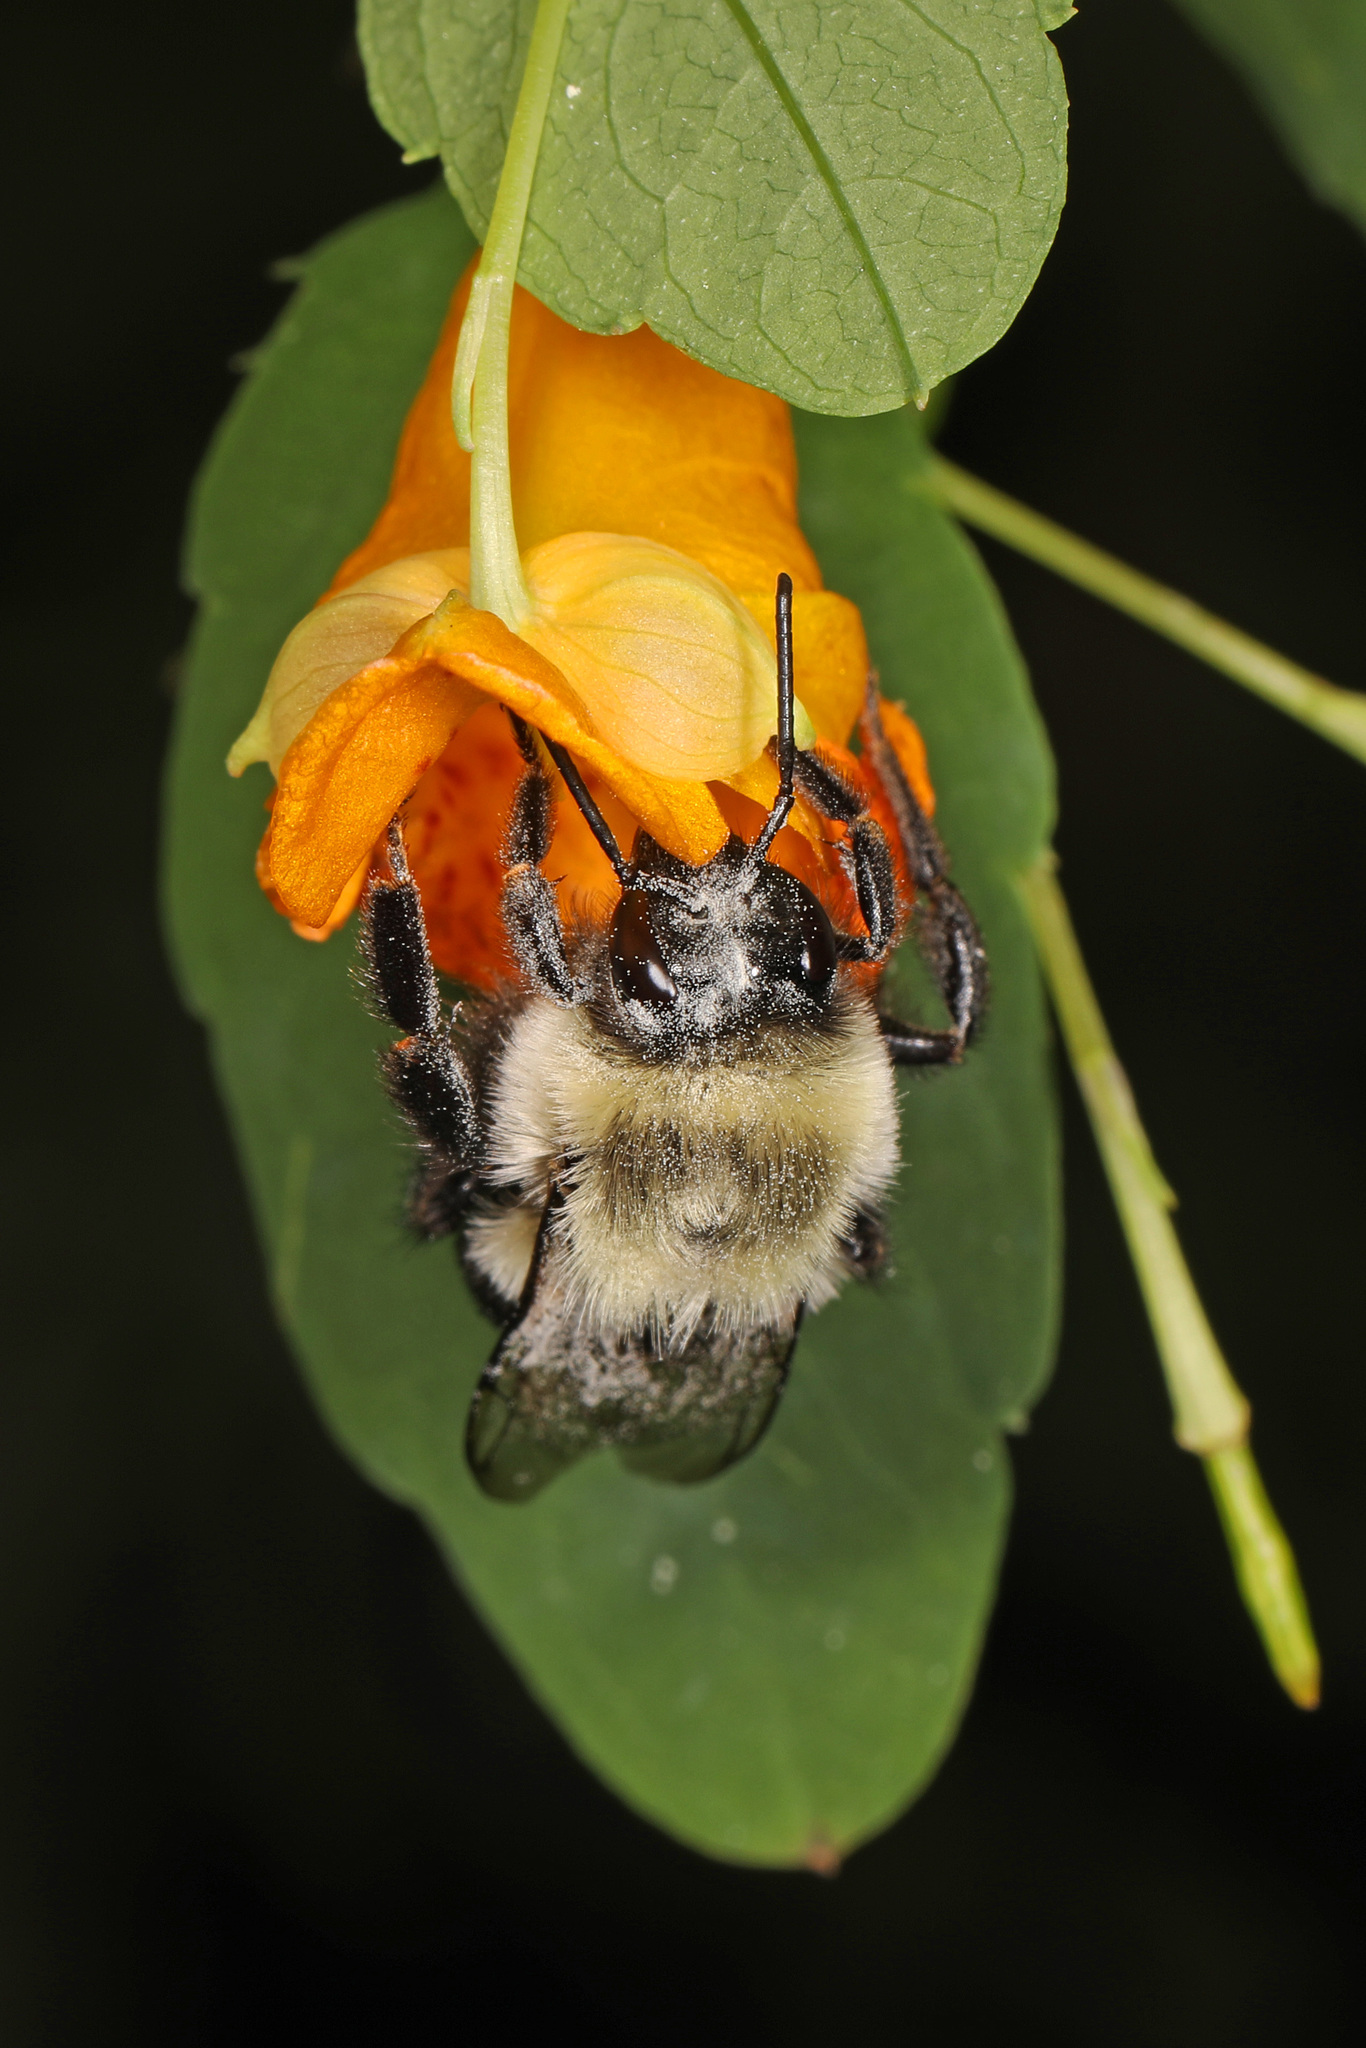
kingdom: Animalia
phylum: Arthropoda
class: Insecta
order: Hymenoptera
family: Apidae
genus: Bombus
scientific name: Bombus impatiens
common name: Common eastern bumble bee
